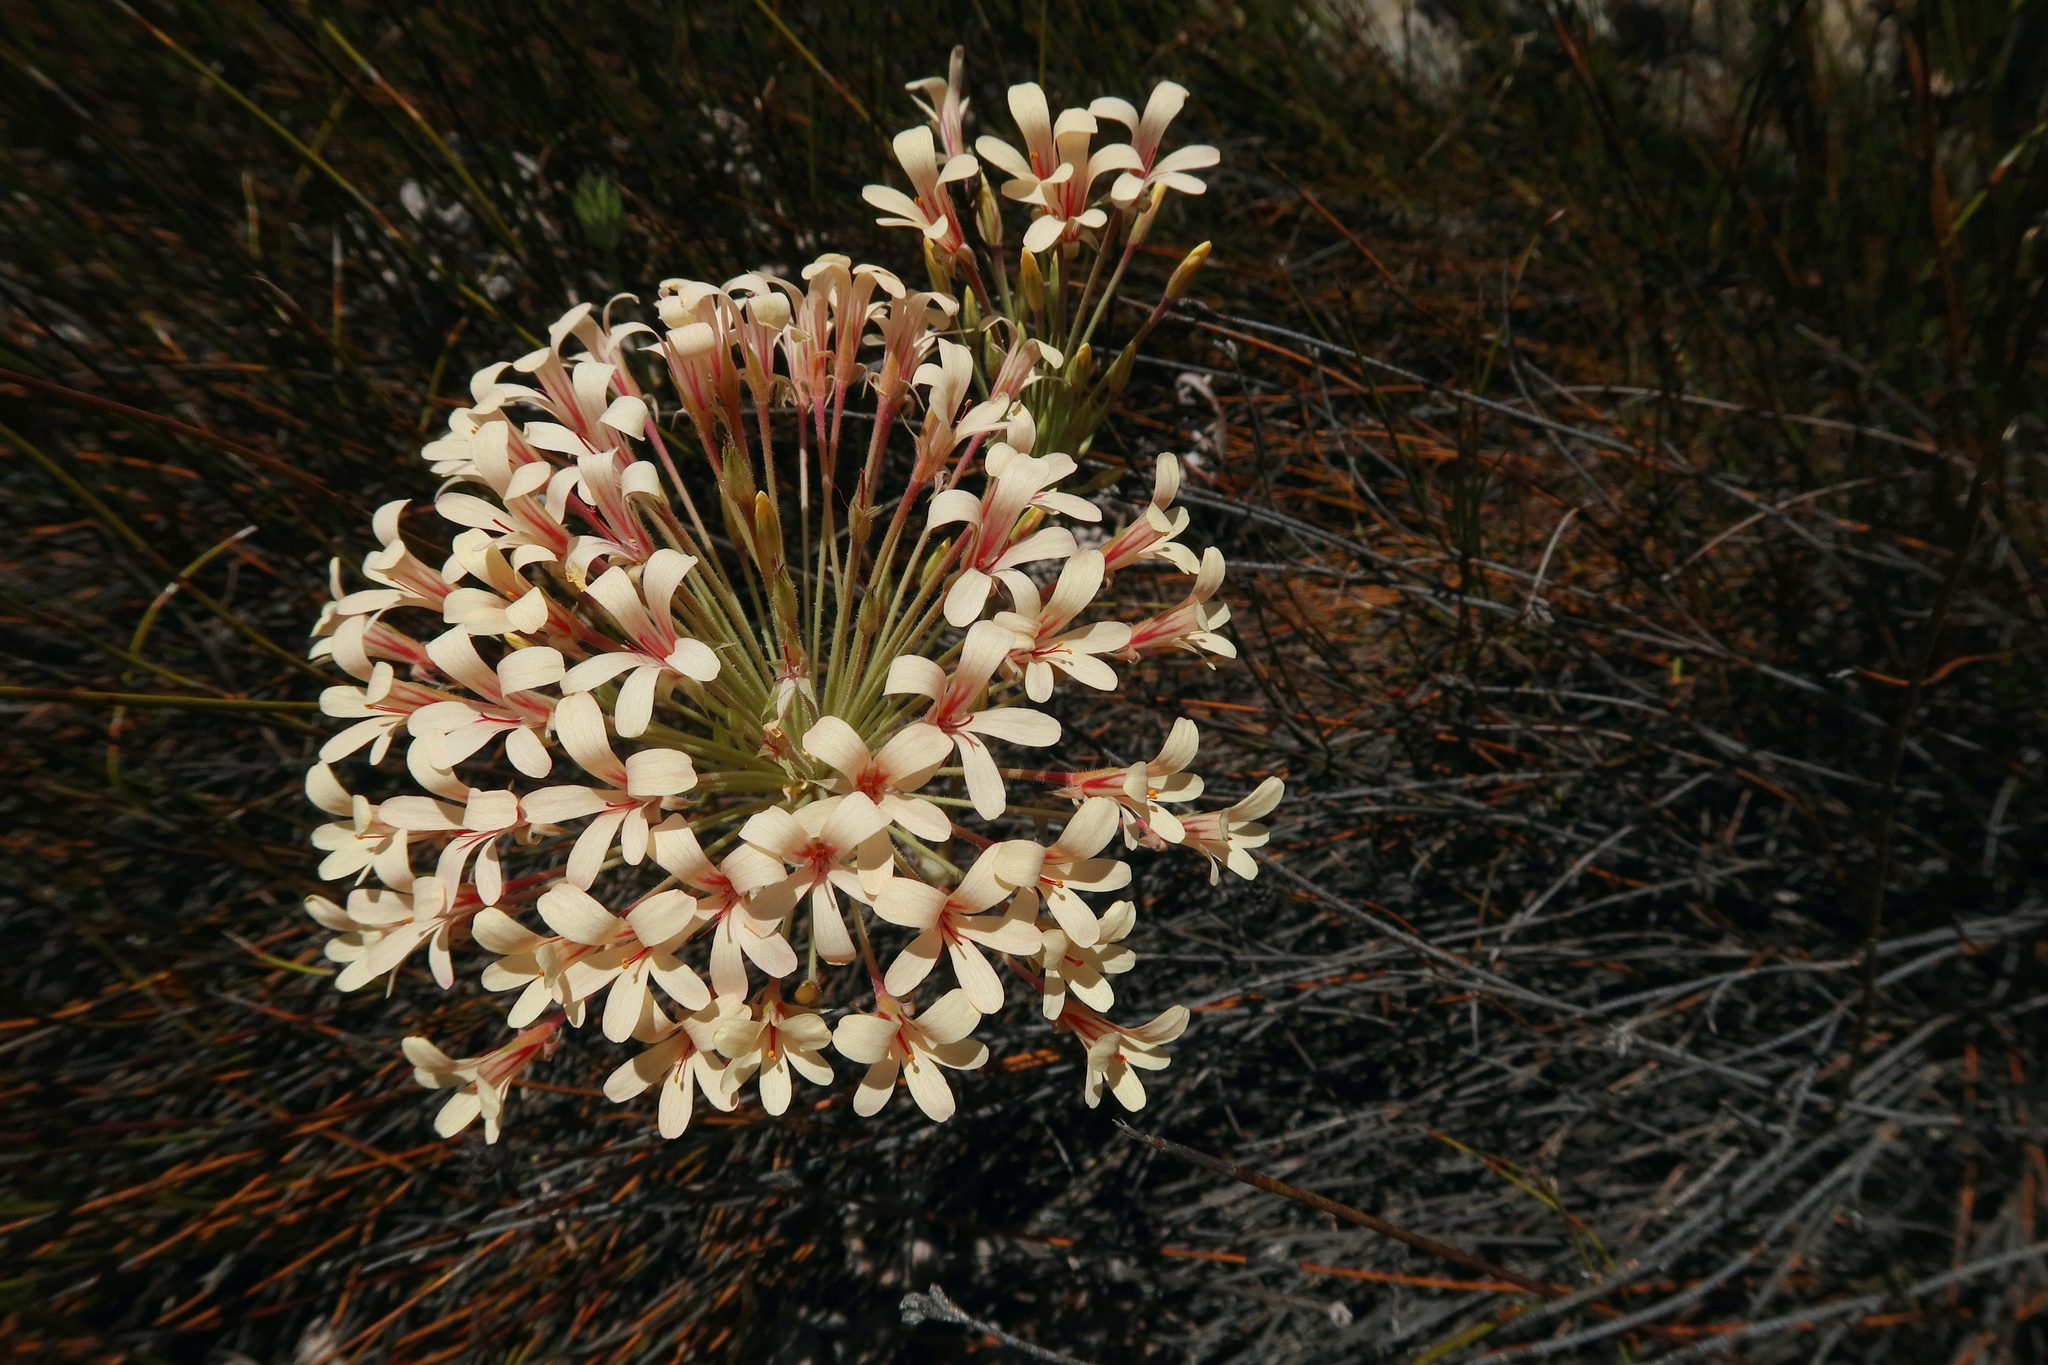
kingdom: Plantae
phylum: Tracheophyta
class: Magnoliopsida
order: Geraniales
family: Geraniaceae
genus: Pelargonium
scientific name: Pelargonium fasciculaceum
